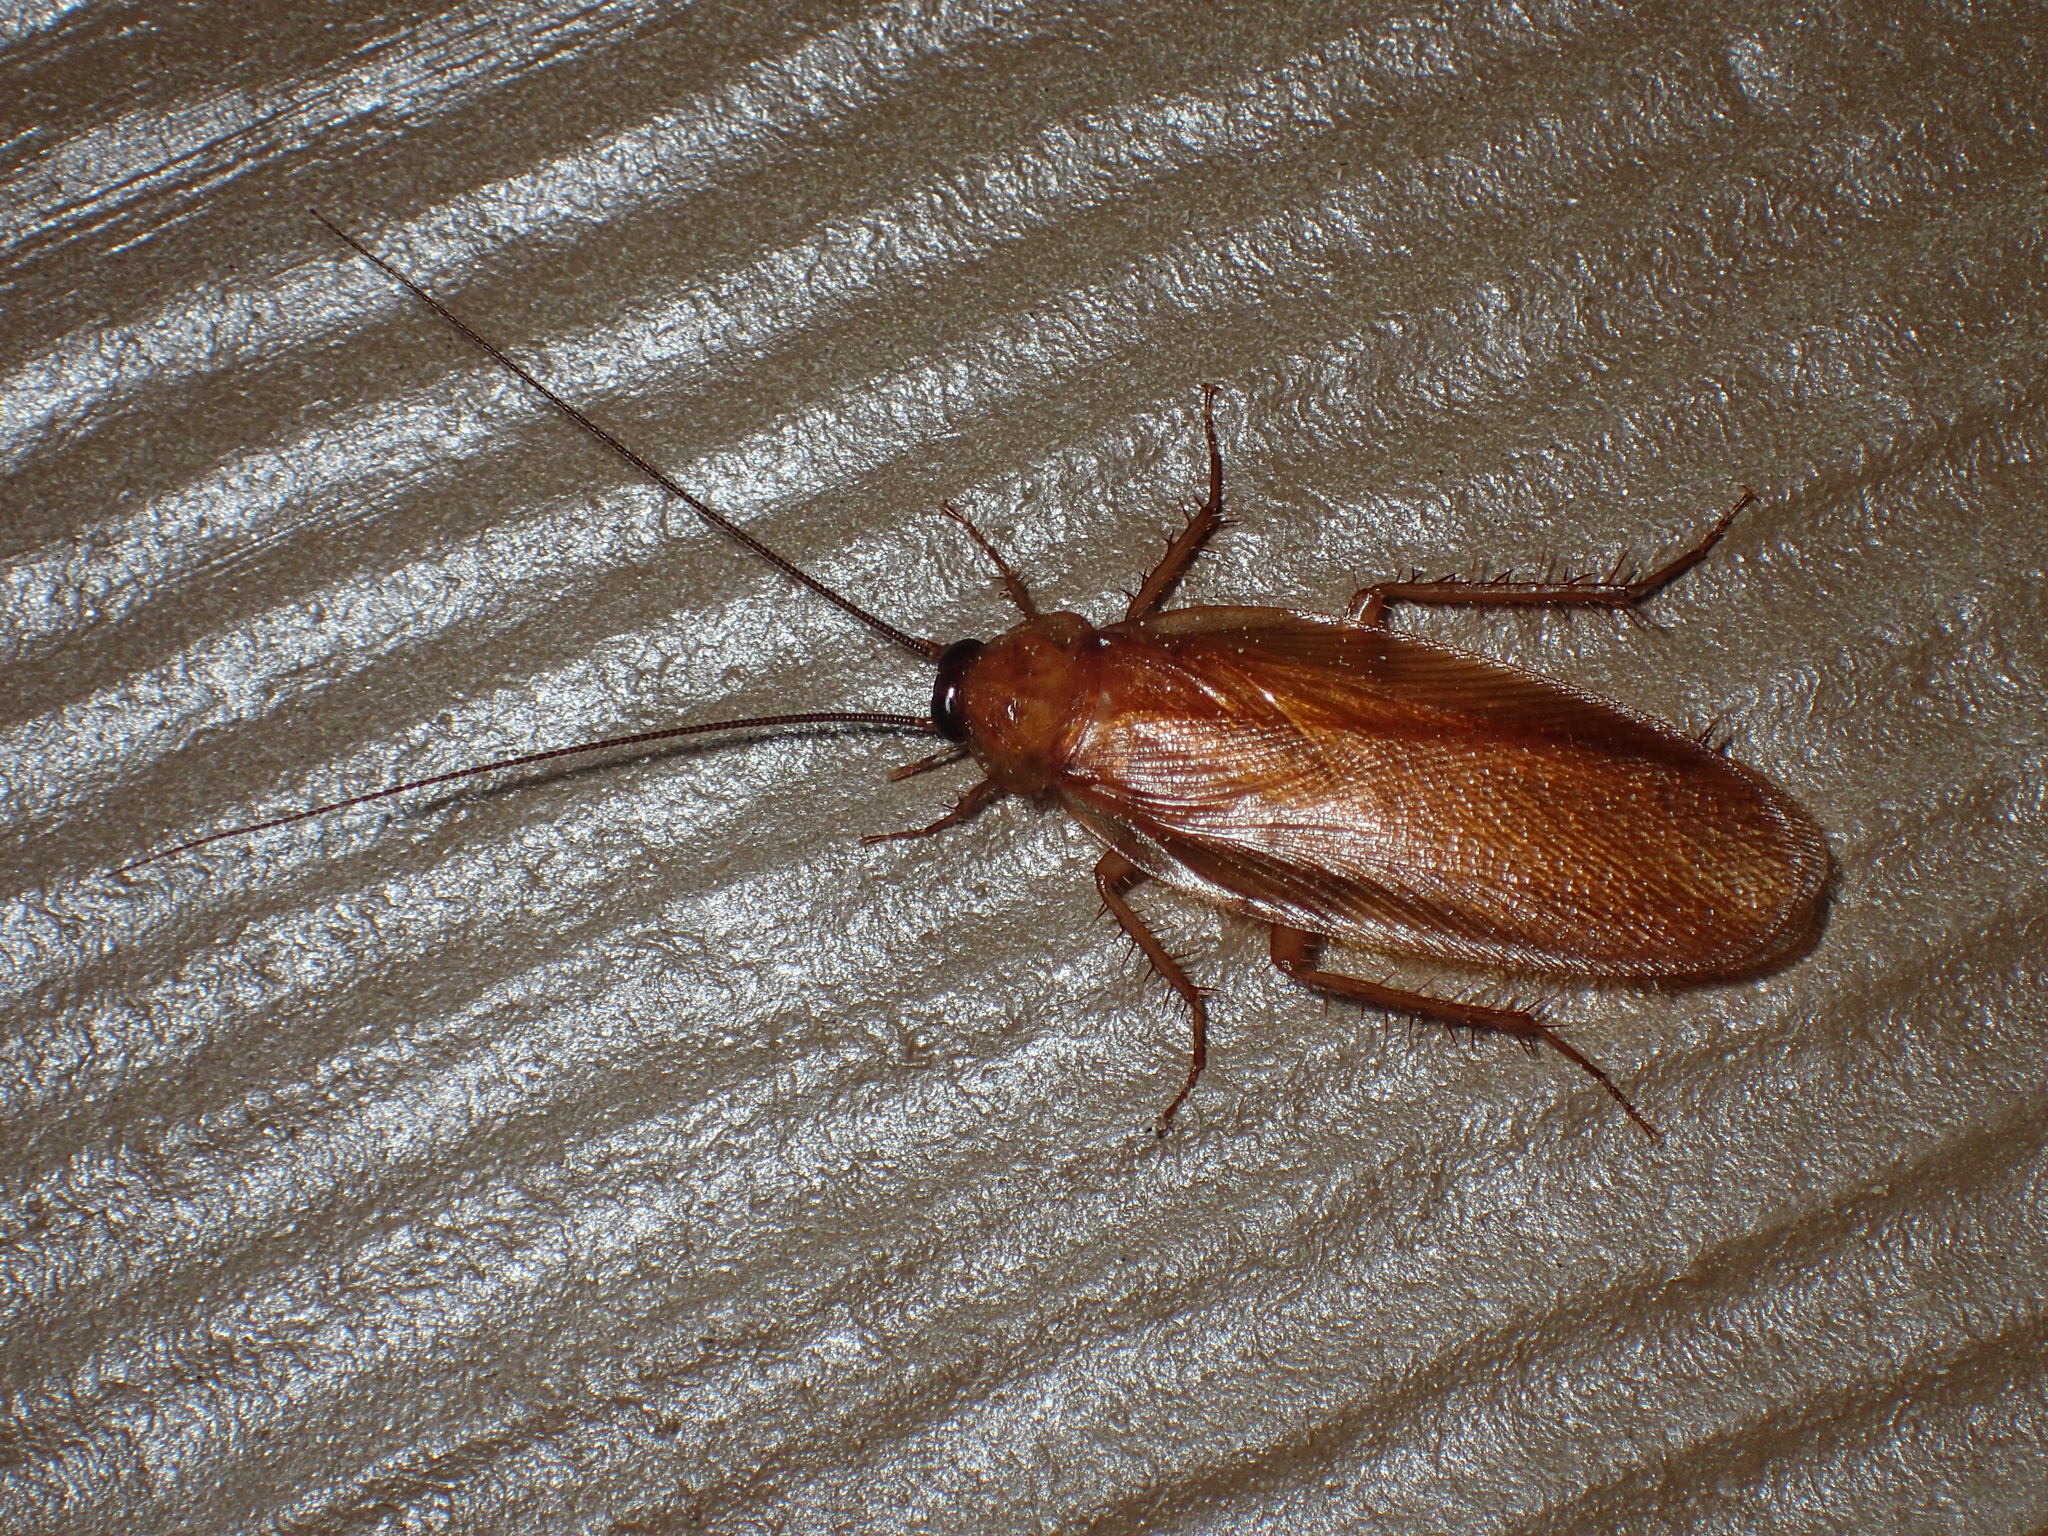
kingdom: Animalia
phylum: Arthropoda
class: Insecta
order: Blattodea
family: Ectobiidae
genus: Parcoblatta
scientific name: Parcoblatta virginica
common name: Virginia wood cockroach
